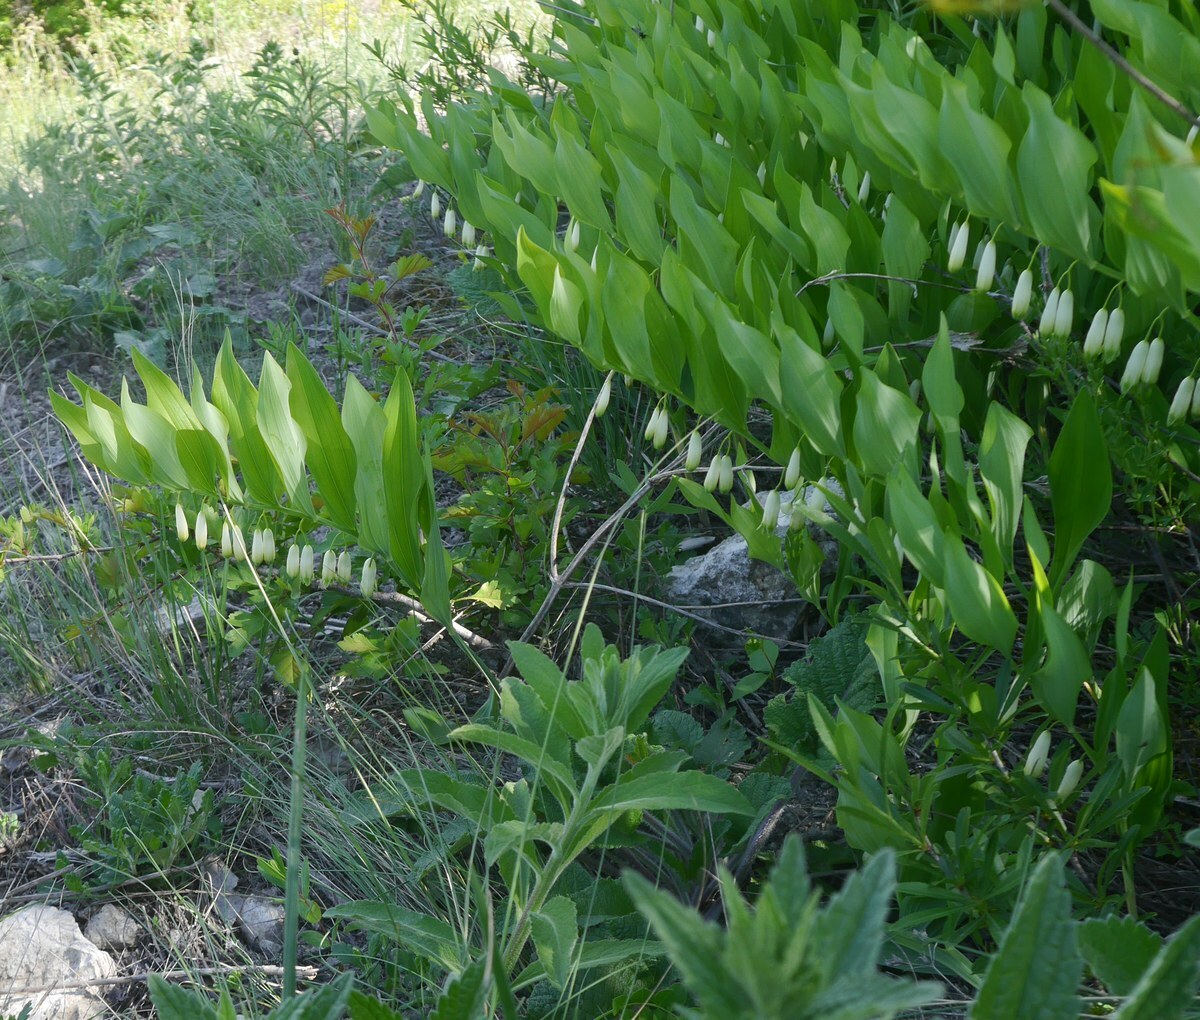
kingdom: Plantae
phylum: Tracheophyta
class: Liliopsida
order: Asparagales
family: Asparagaceae
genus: Polygonatum
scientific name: Polygonatum odoratum
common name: Angular solomon's-seal
